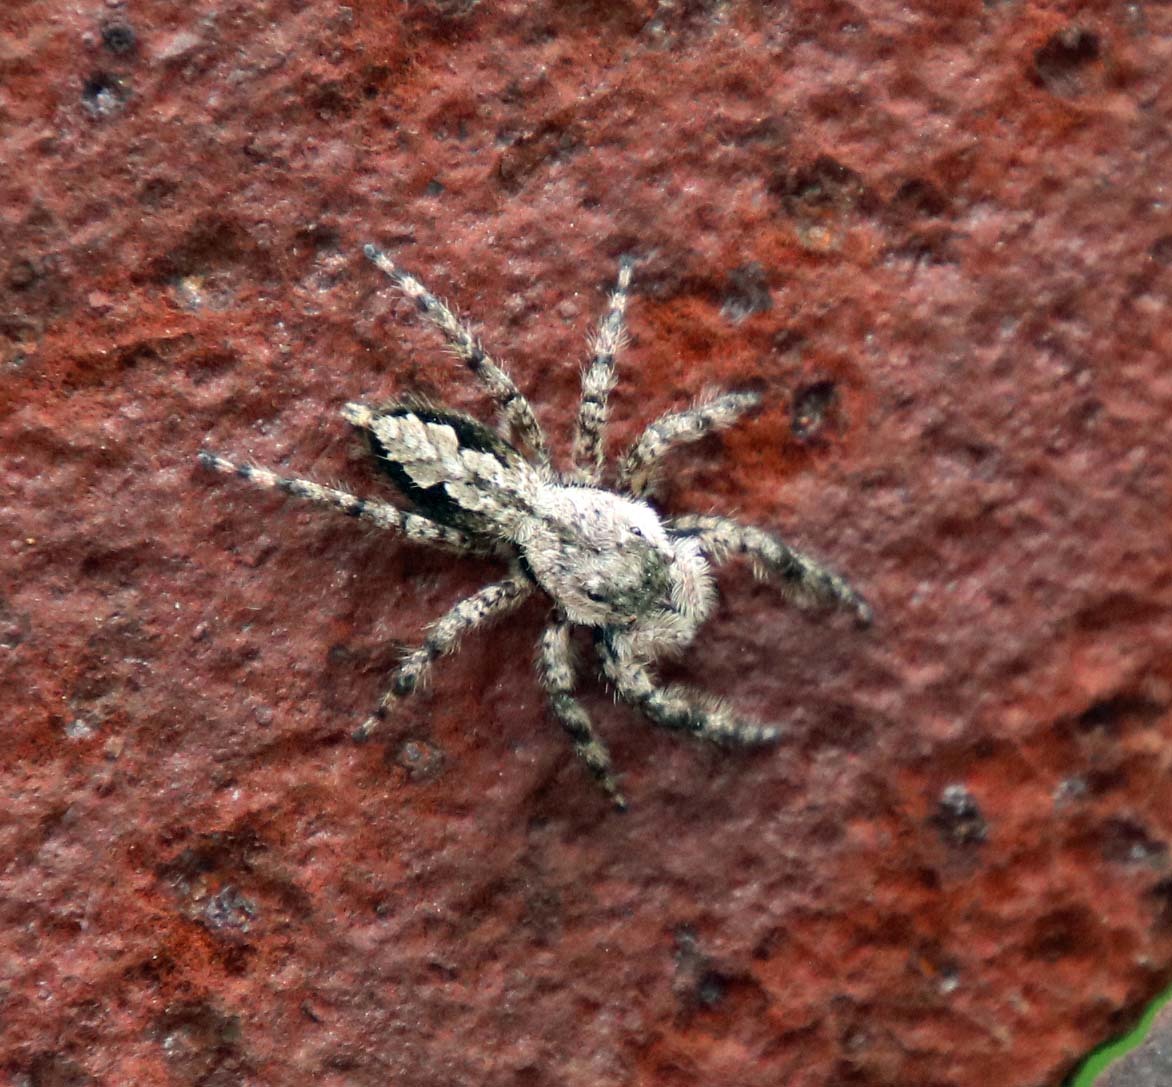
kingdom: Animalia
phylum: Arthropoda
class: Arachnida
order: Araneae
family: Salticidae
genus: Platycryptus
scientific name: Platycryptus undatus
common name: Tan jumping spider
